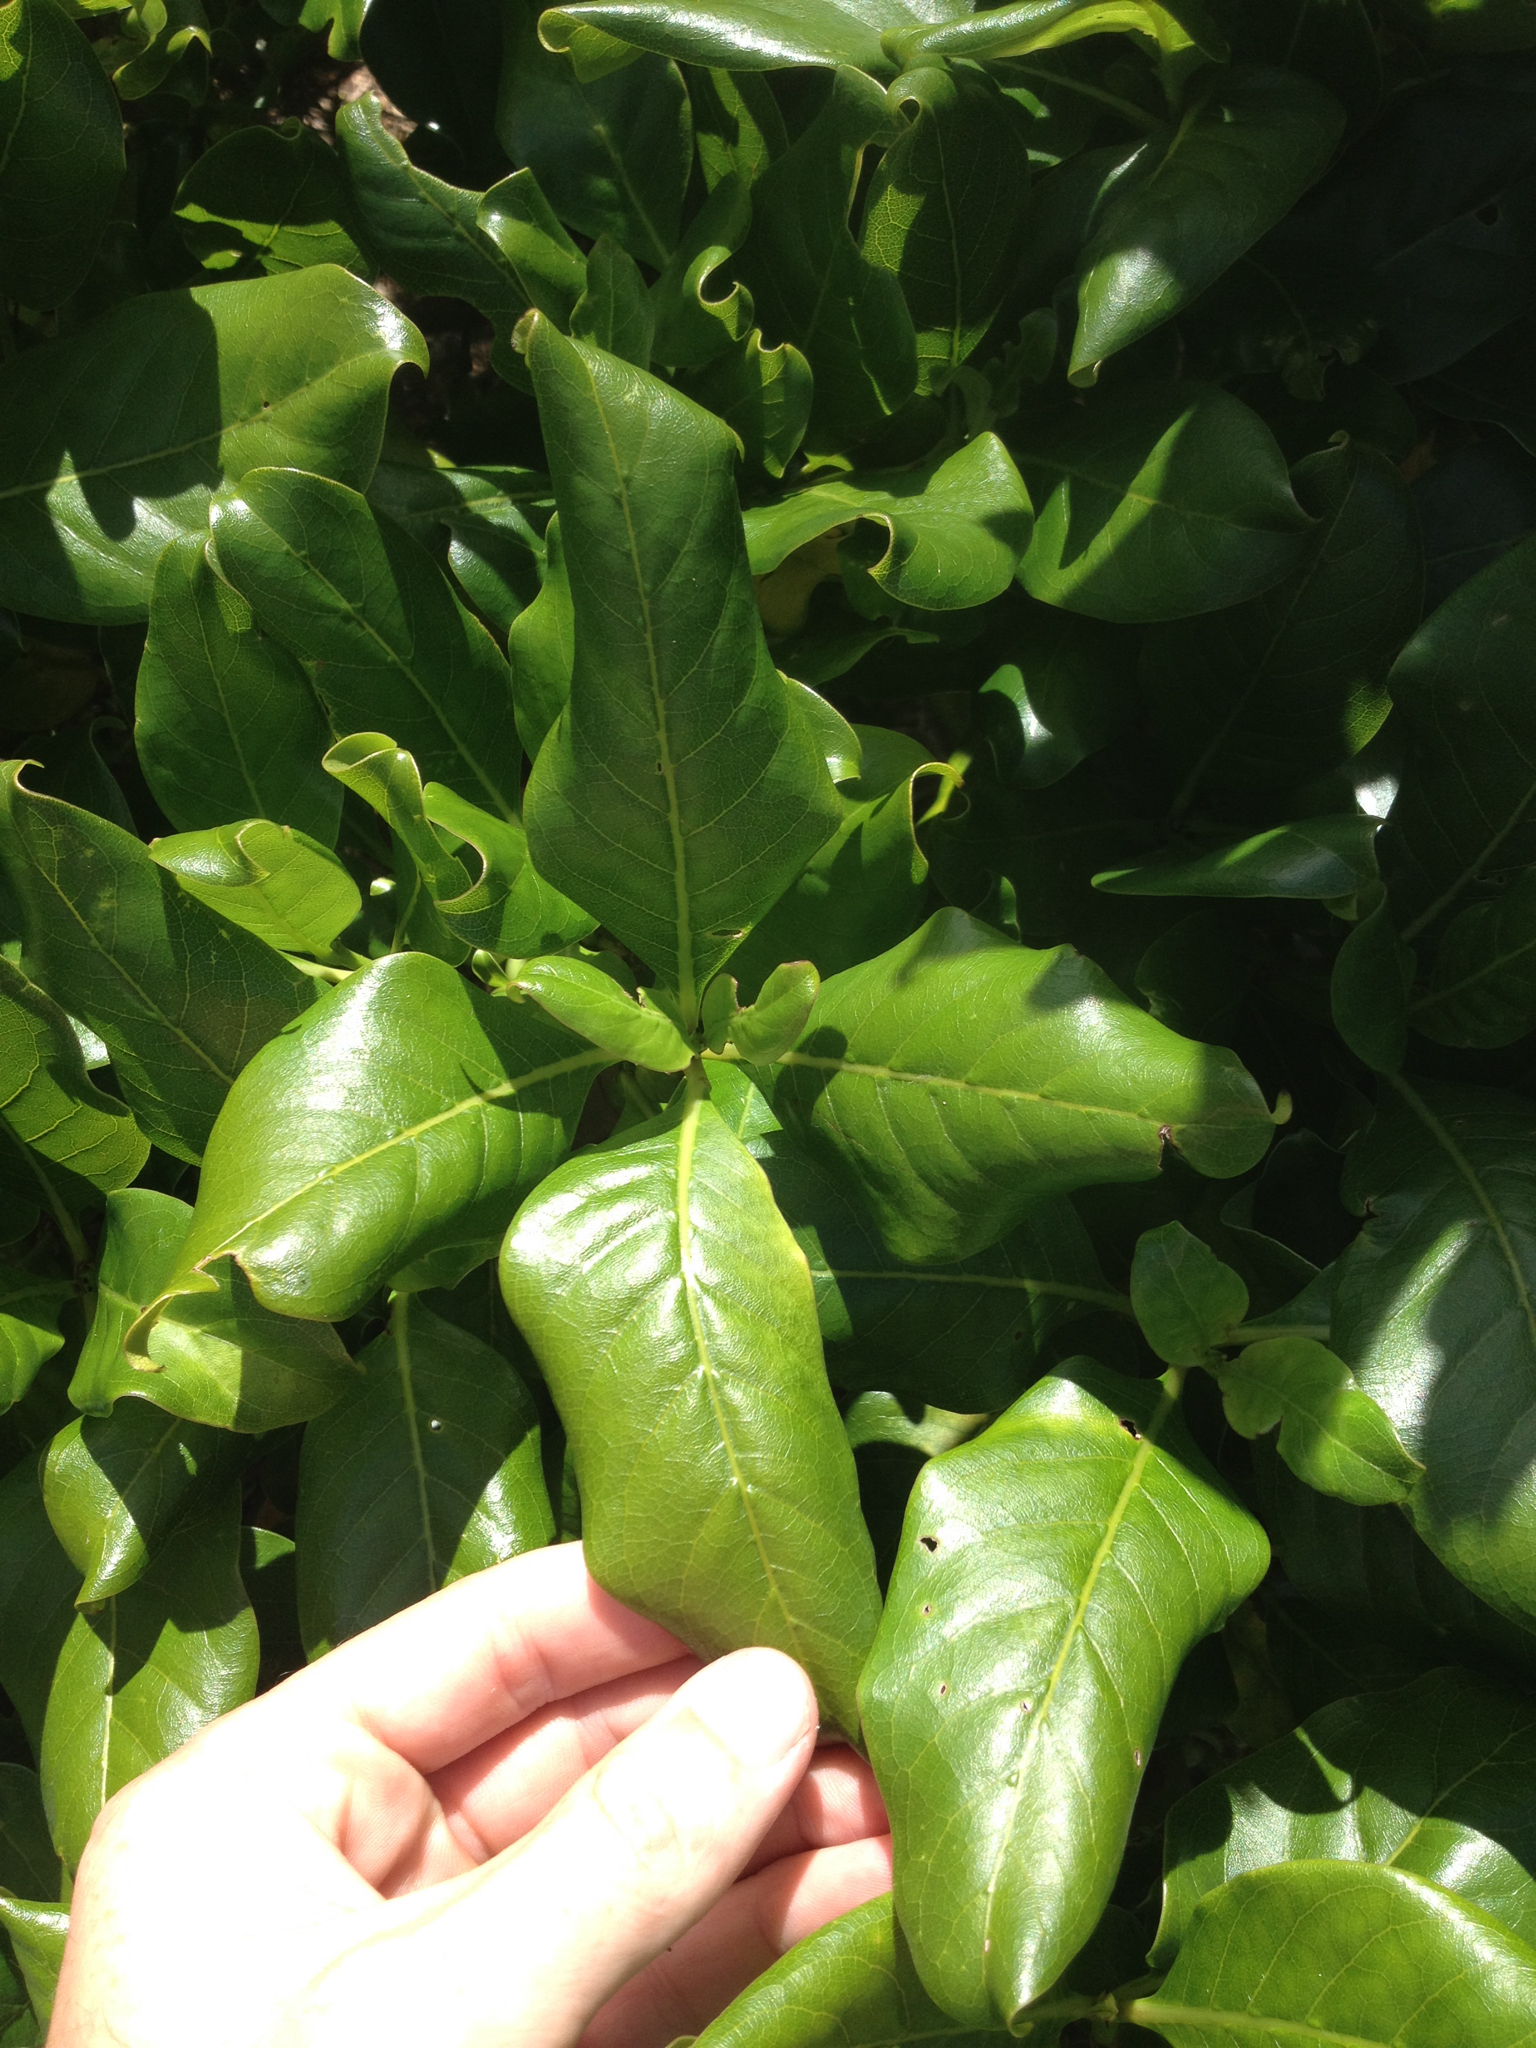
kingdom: Plantae
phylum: Tracheophyta
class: Magnoliopsida
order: Gentianales
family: Rubiaceae
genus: Coprosma
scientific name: Coprosma macrocarpa
